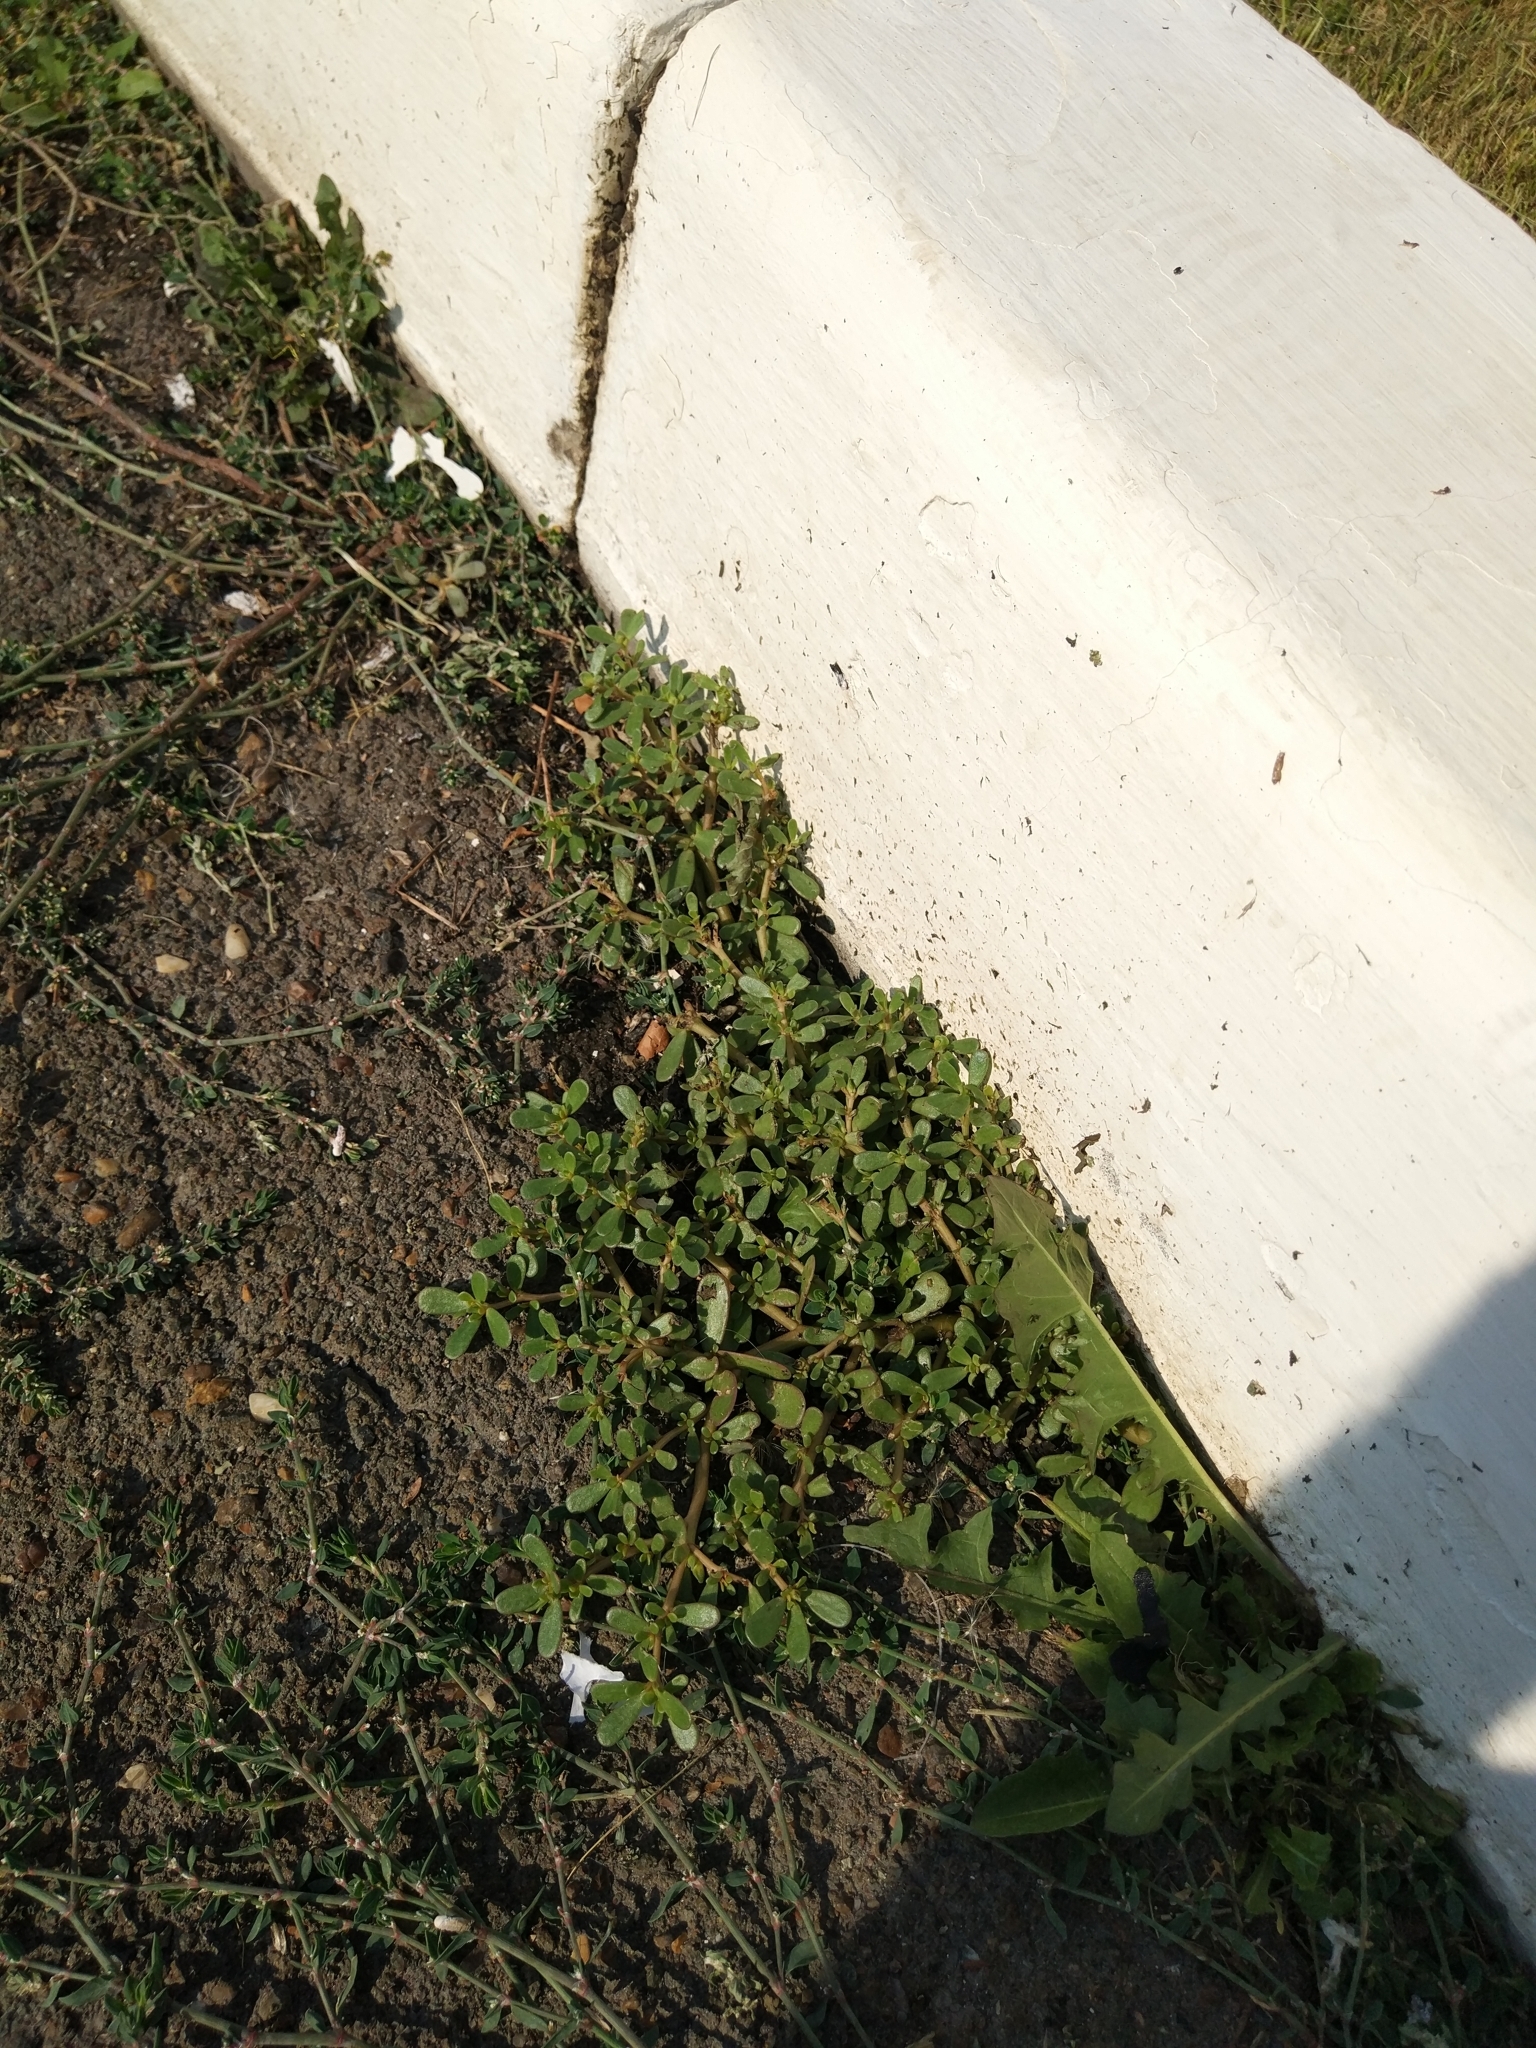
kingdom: Plantae
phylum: Tracheophyta
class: Magnoliopsida
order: Caryophyllales
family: Portulacaceae
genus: Portulaca
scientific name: Portulaca oleracea
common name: Common purslane
